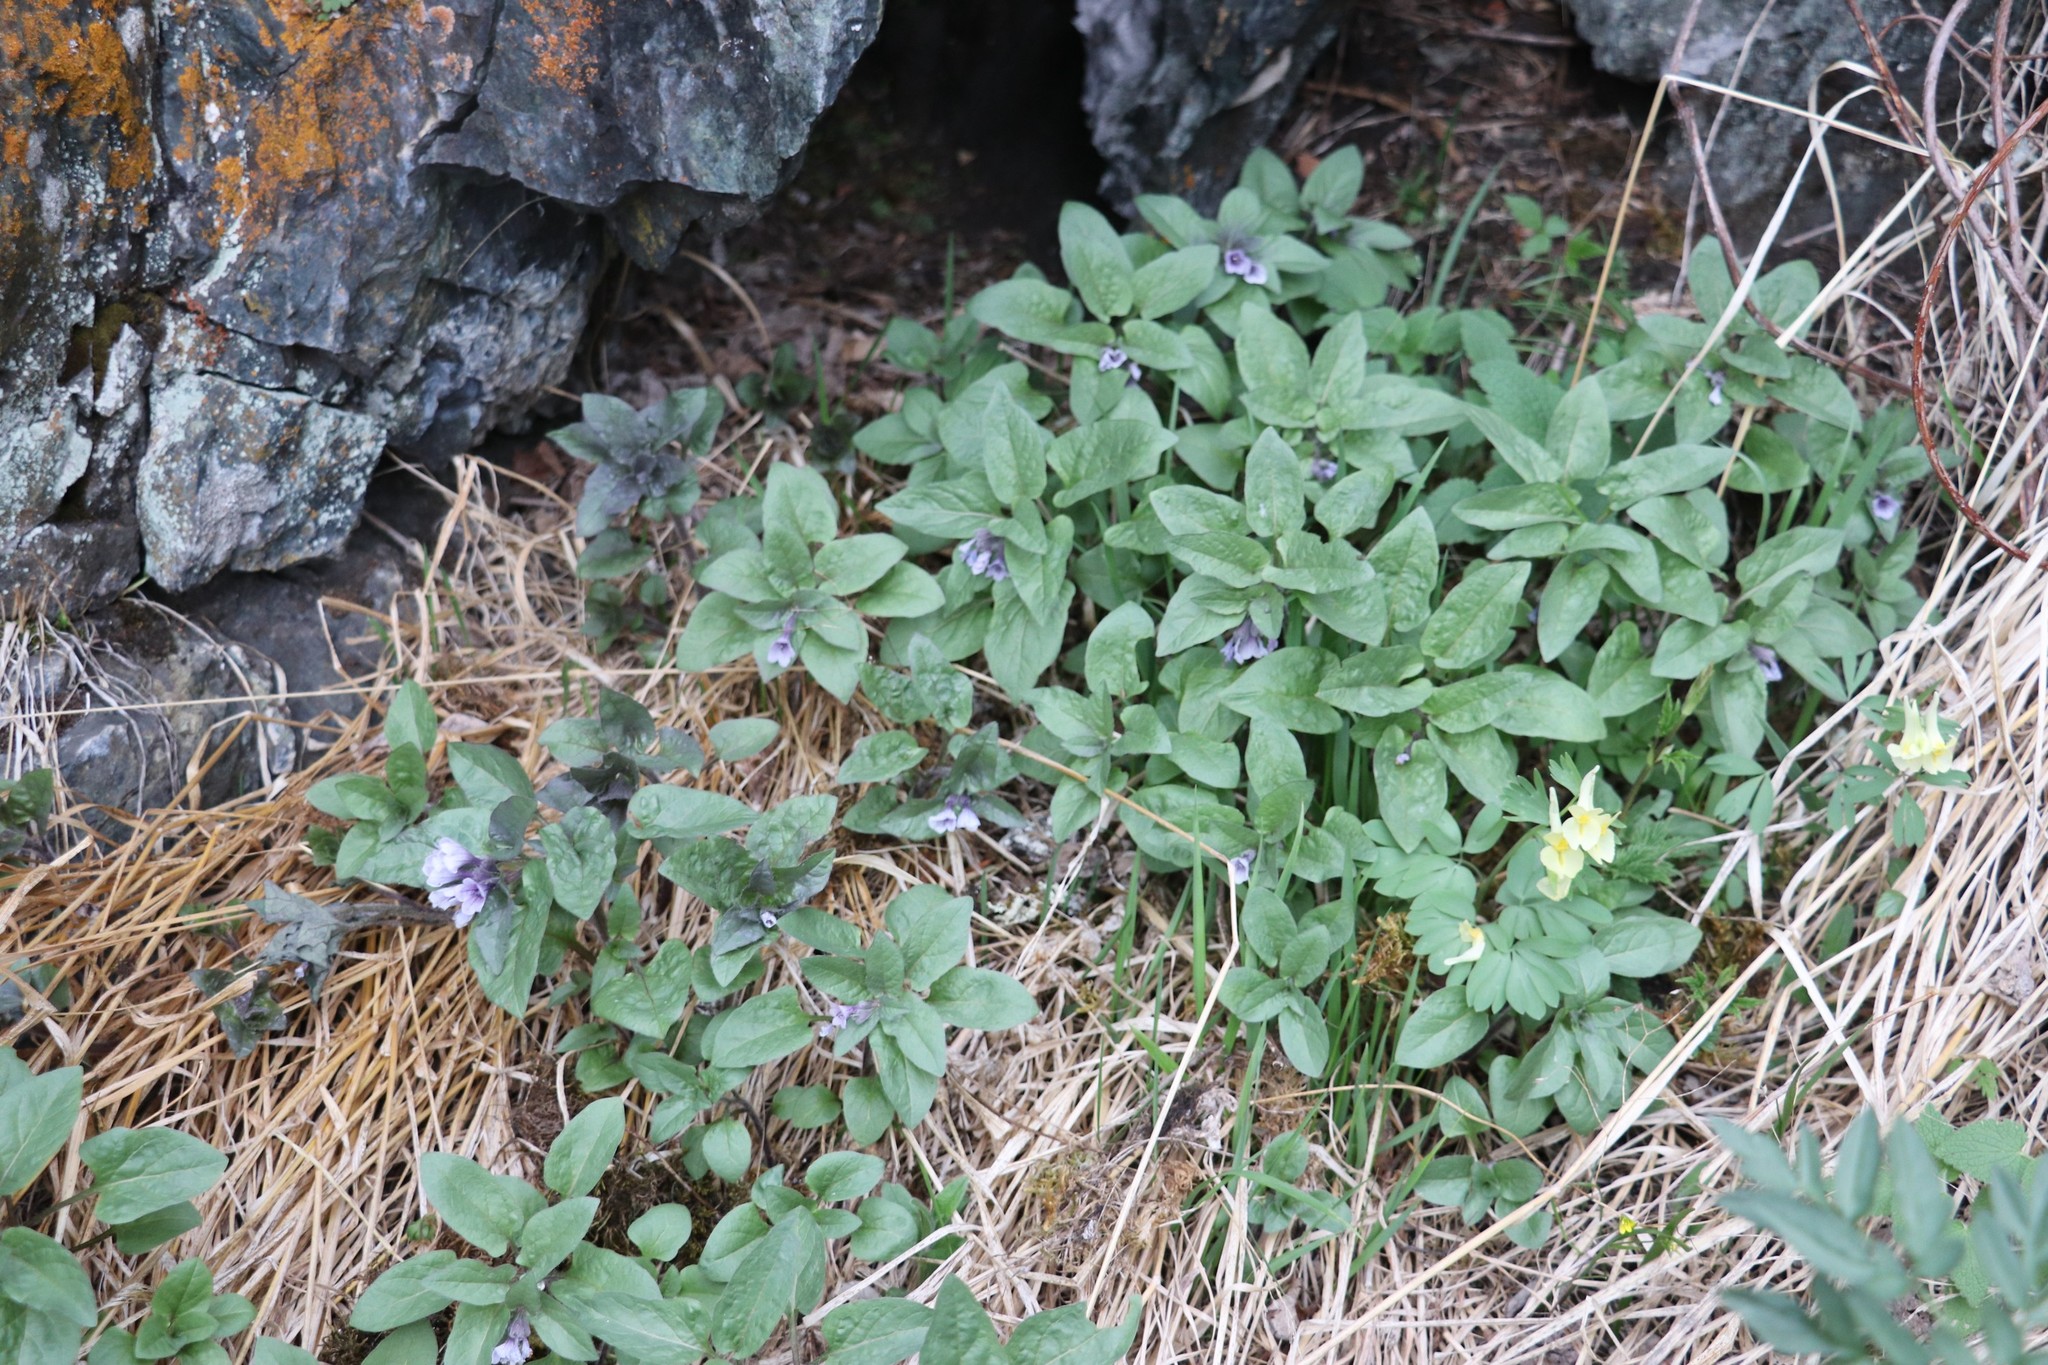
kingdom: Plantae
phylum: Tracheophyta
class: Magnoliopsida
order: Solanales
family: Solanaceae
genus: Physochlaina
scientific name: Physochlaina physaloides
